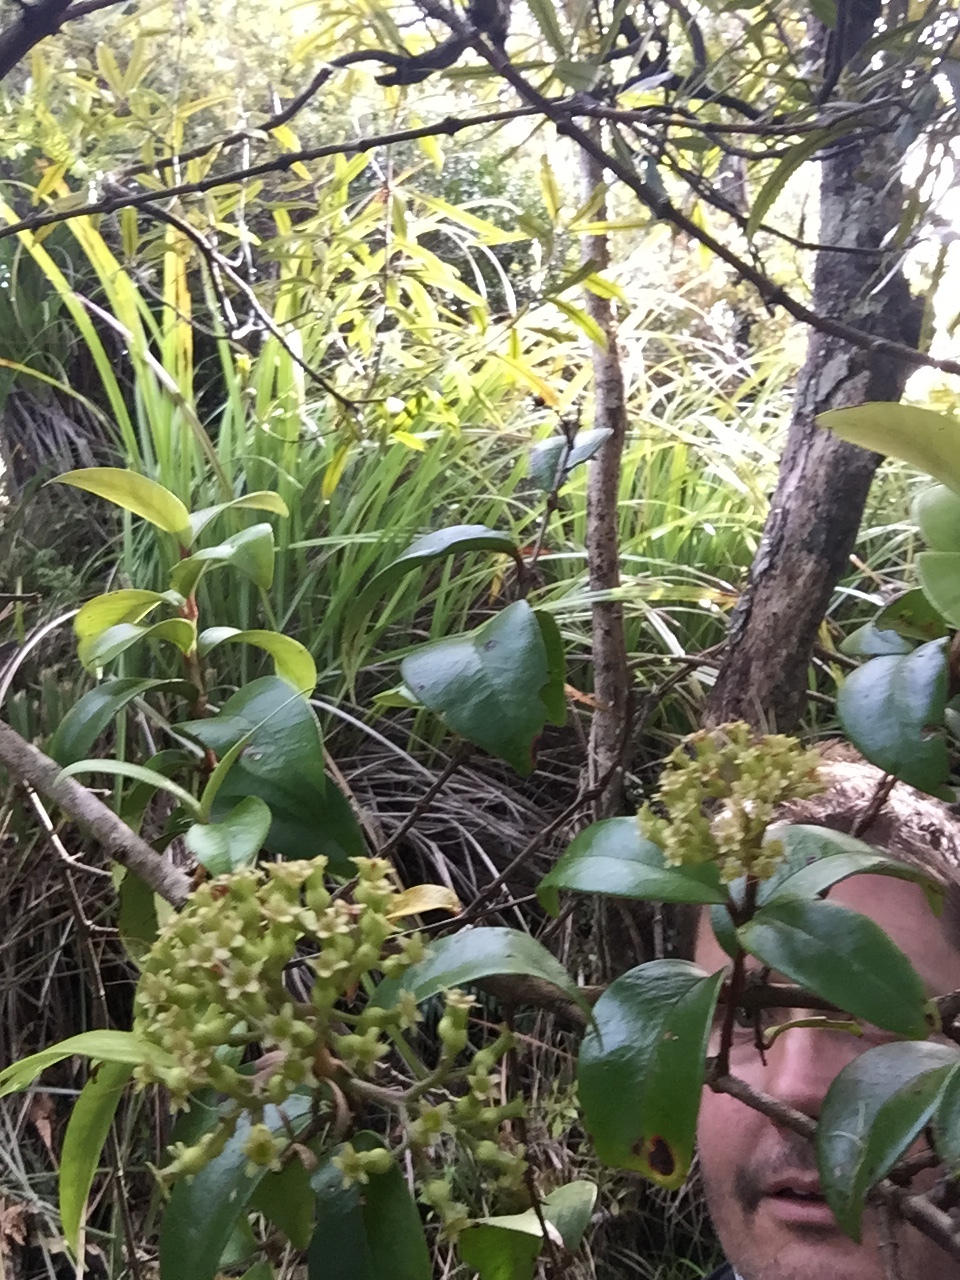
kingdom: Plantae
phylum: Tracheophyta
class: Magnoliopsida
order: Myrtales
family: Myrtaceae
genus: Metrosideros
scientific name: Metrosideros albiflora
